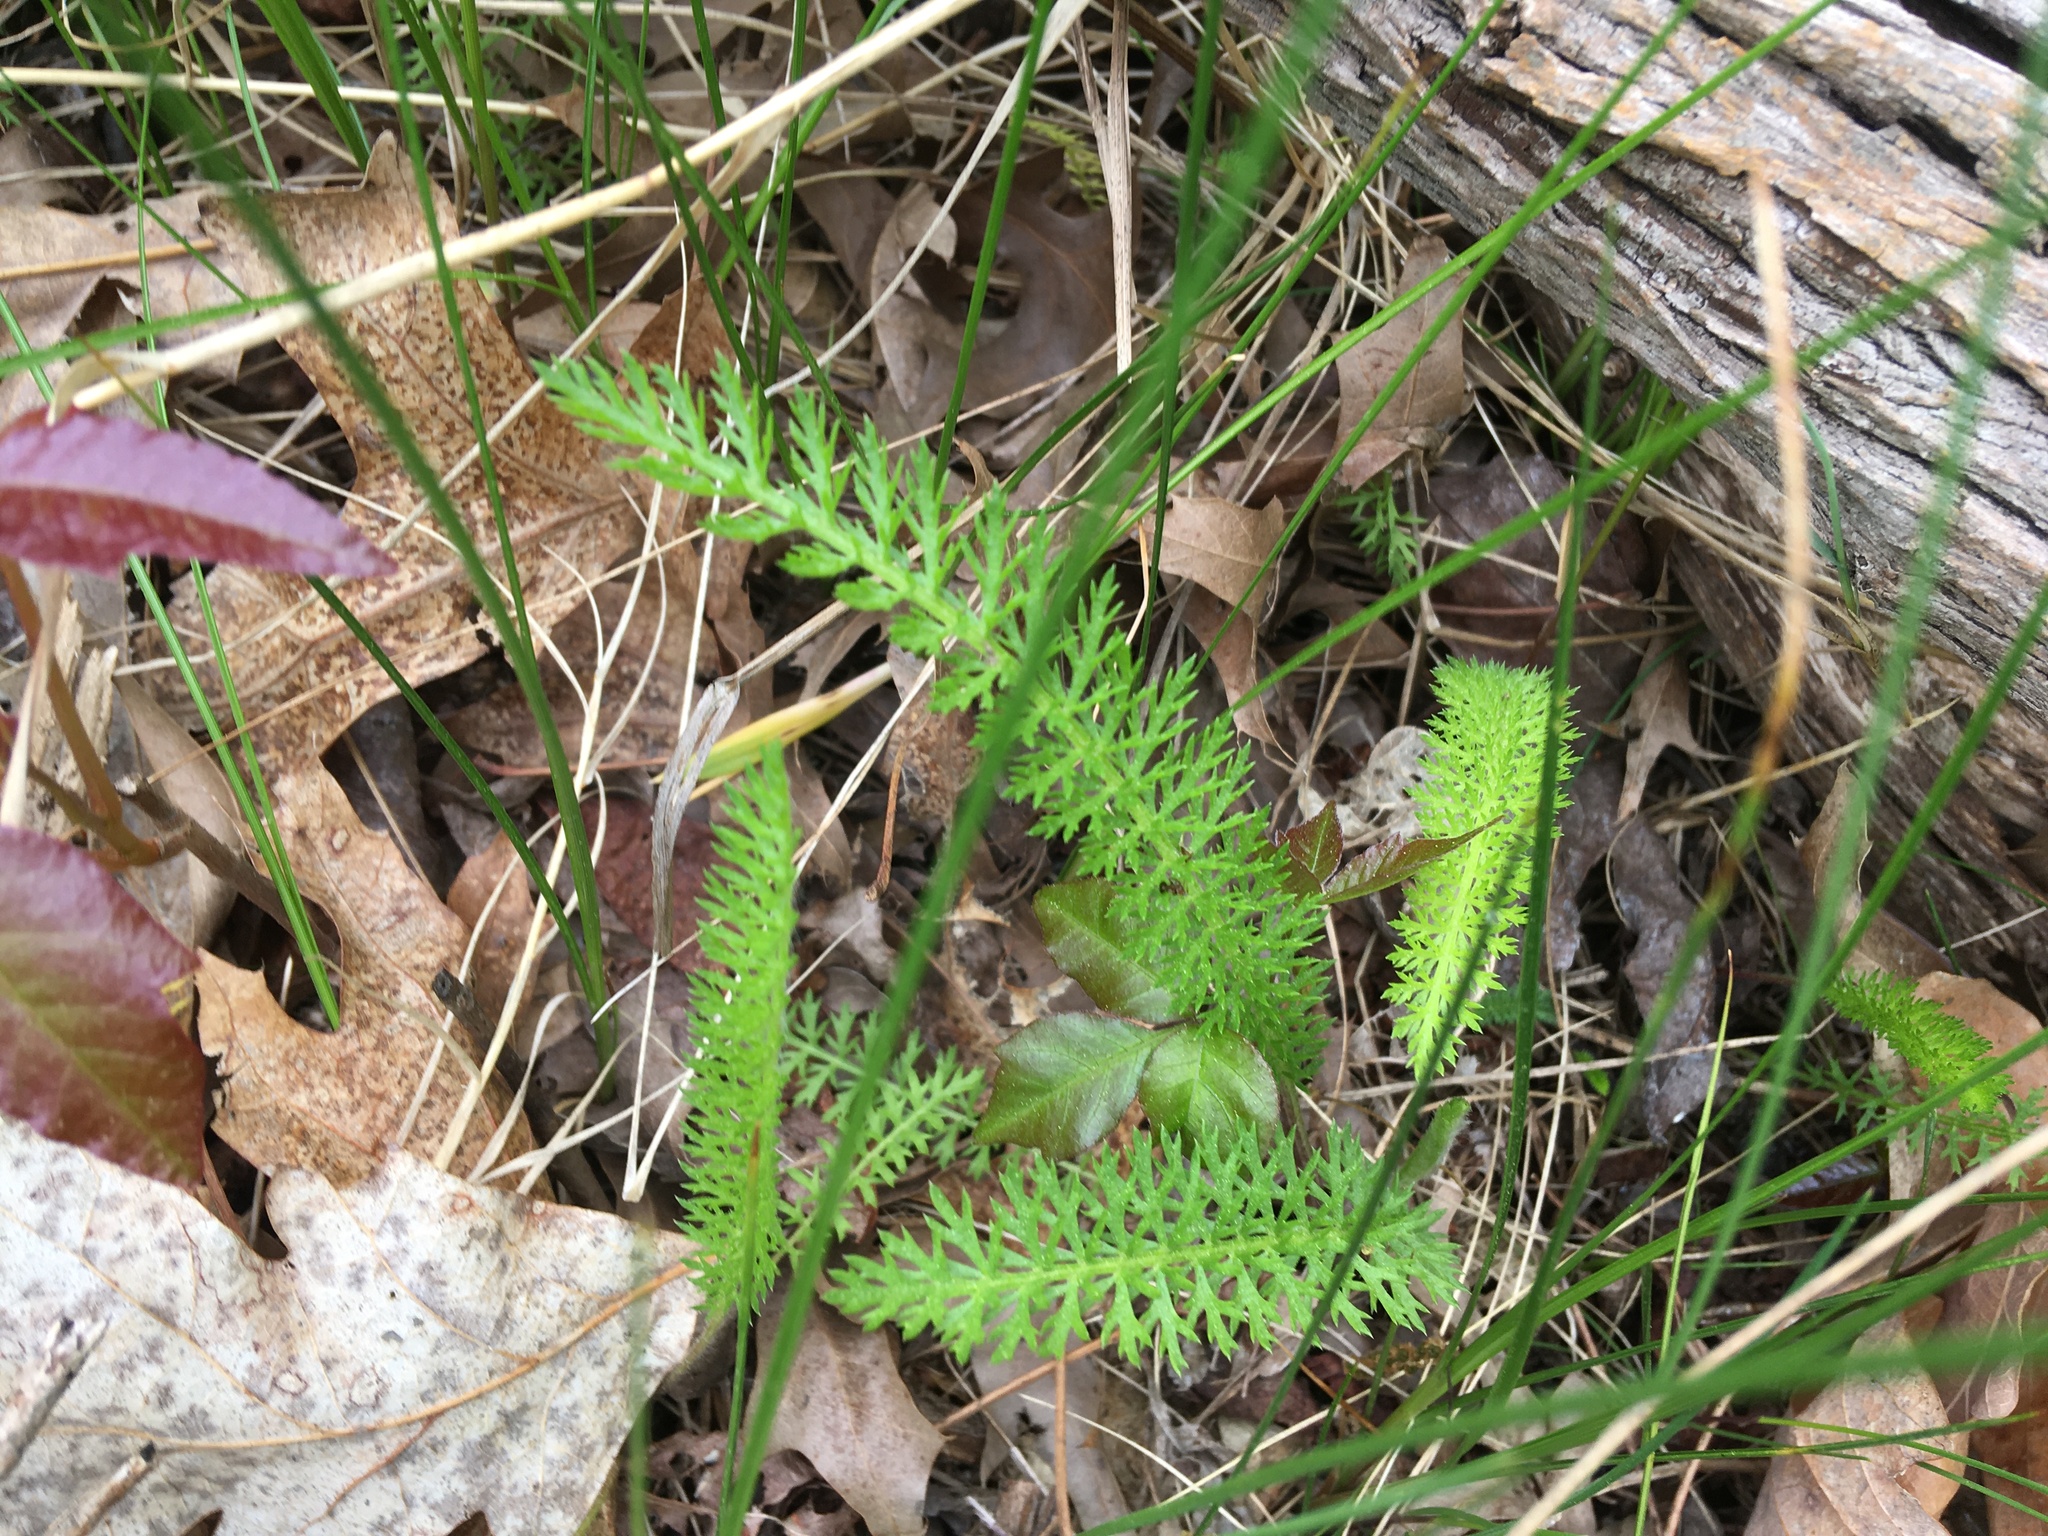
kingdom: Plantae
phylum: Tracheophyta
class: Magnoliopsida
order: Asterales
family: Asteraceae
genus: Achillea
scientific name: Achillea millefolium
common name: Yarrow
